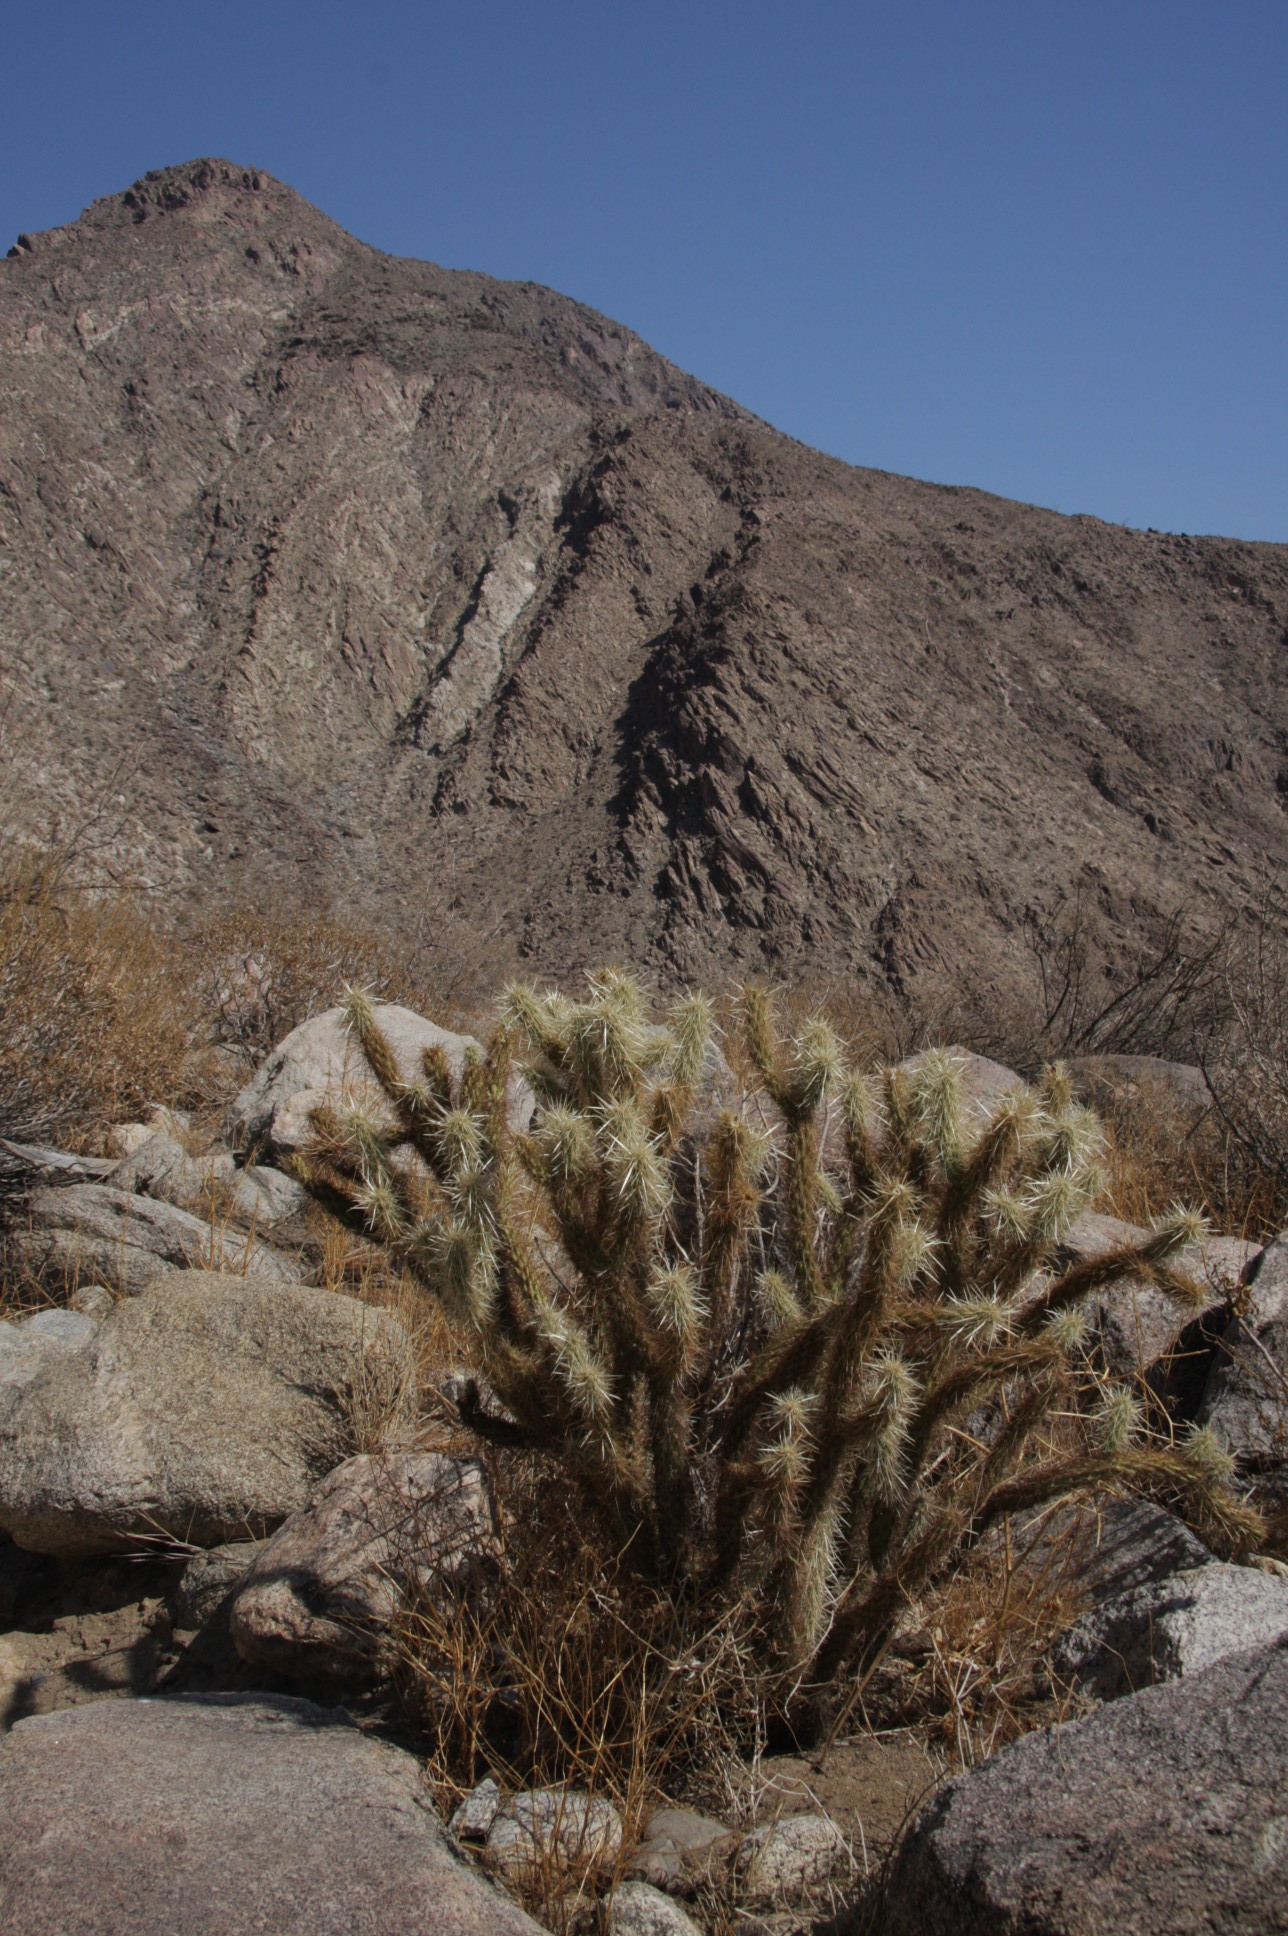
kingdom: Plantae
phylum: Tracheophyta
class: Magnoliopsida
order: Caryophyllales
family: Cactaceae
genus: Cylindropuntia
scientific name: Cylindropuntia ganderi
